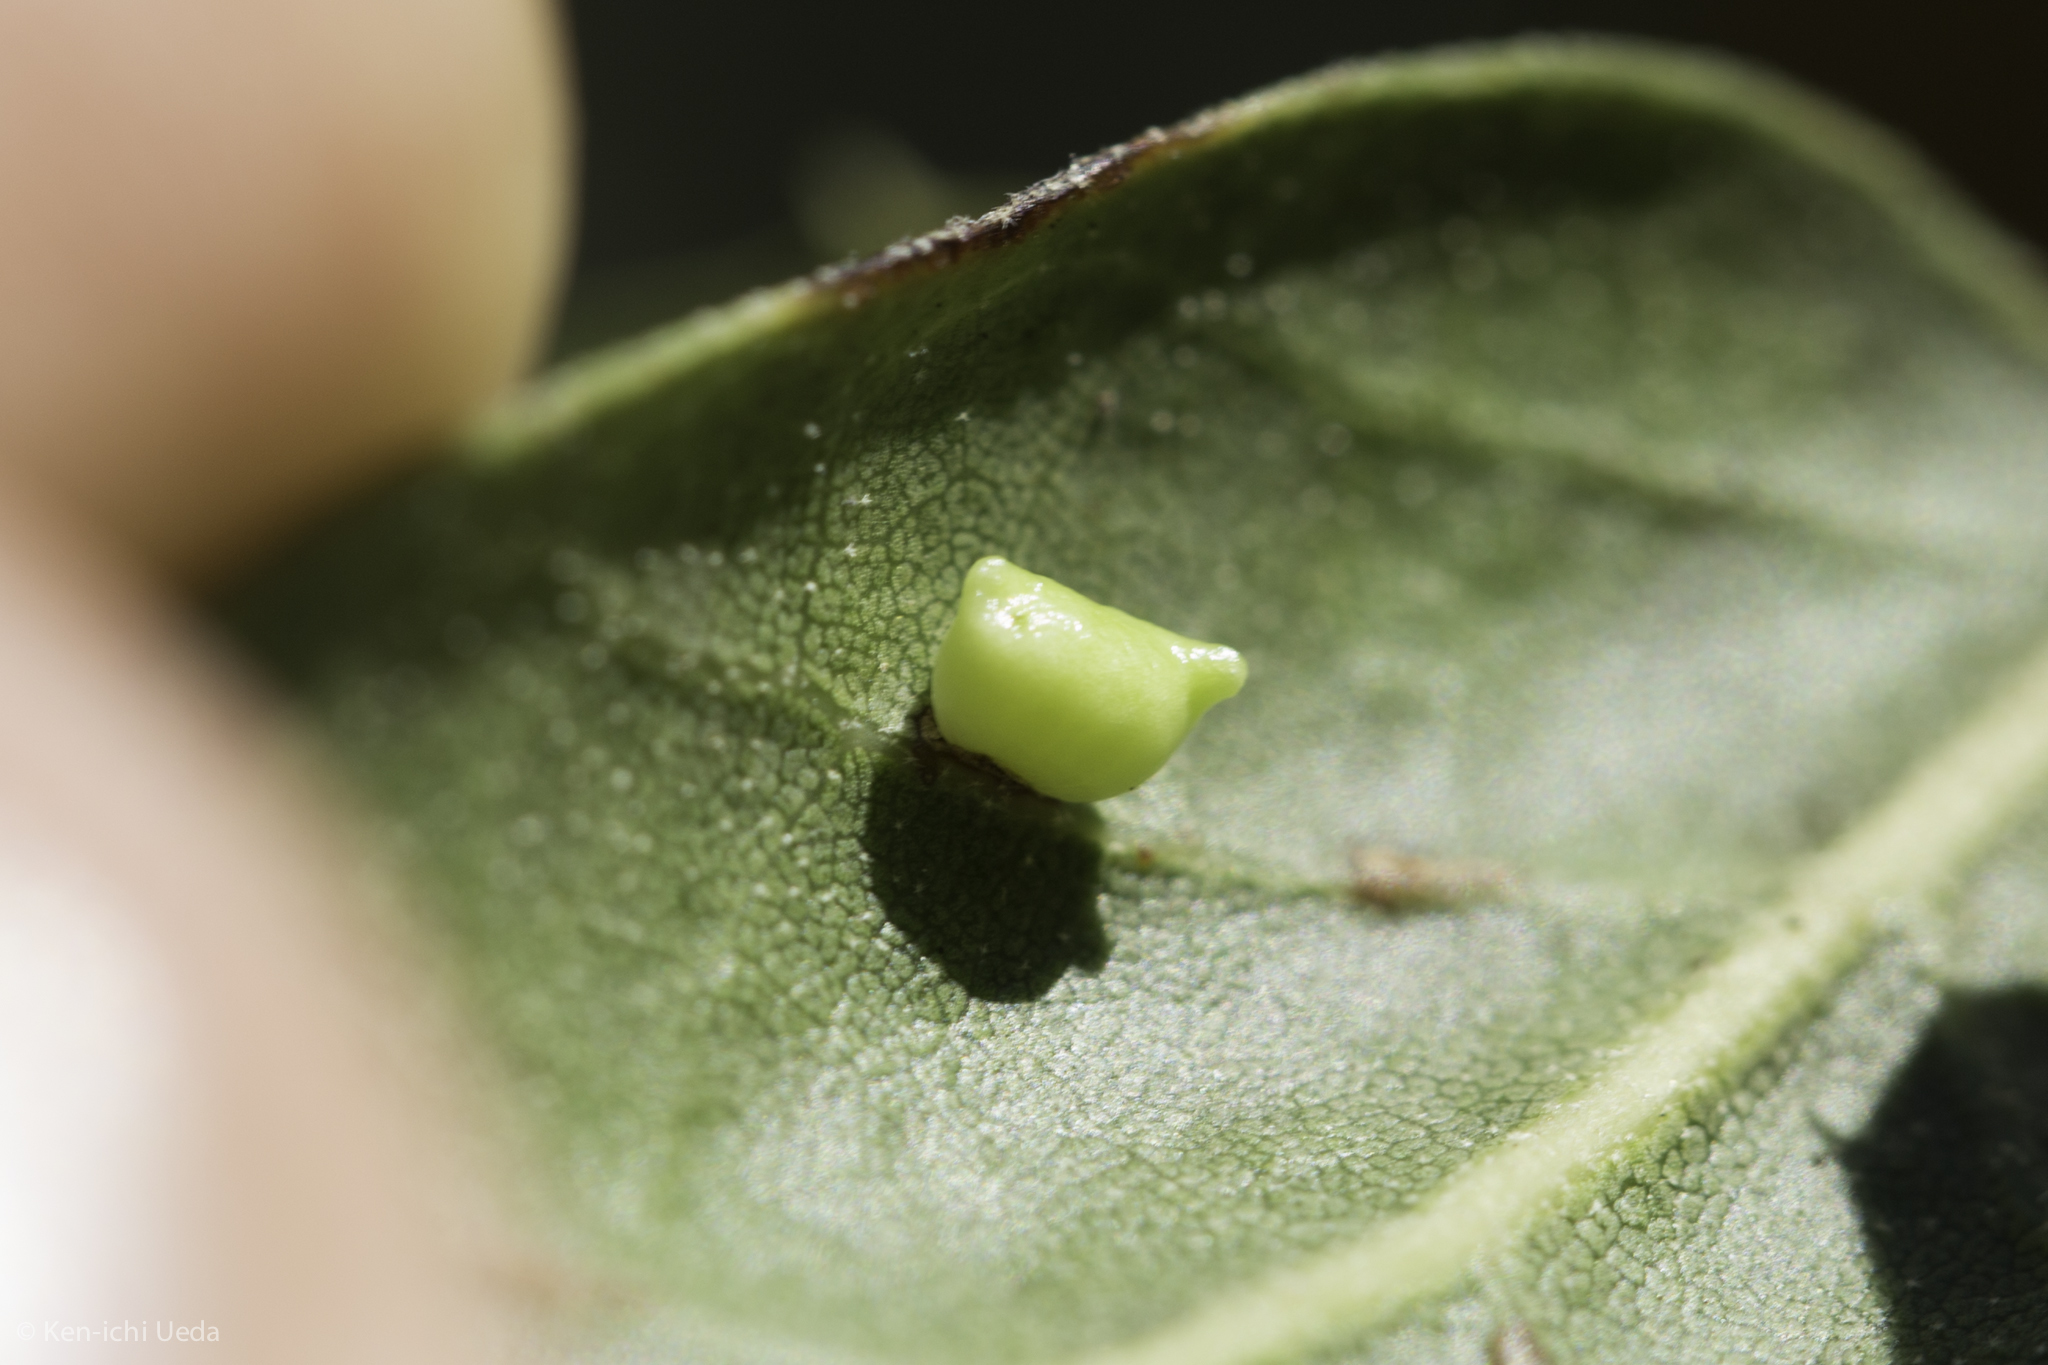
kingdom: Animalia
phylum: Arthropoda
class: Insecta
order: Hymenoptera
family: Cynipidae
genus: Dryocosmus
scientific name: Dryocosmus
